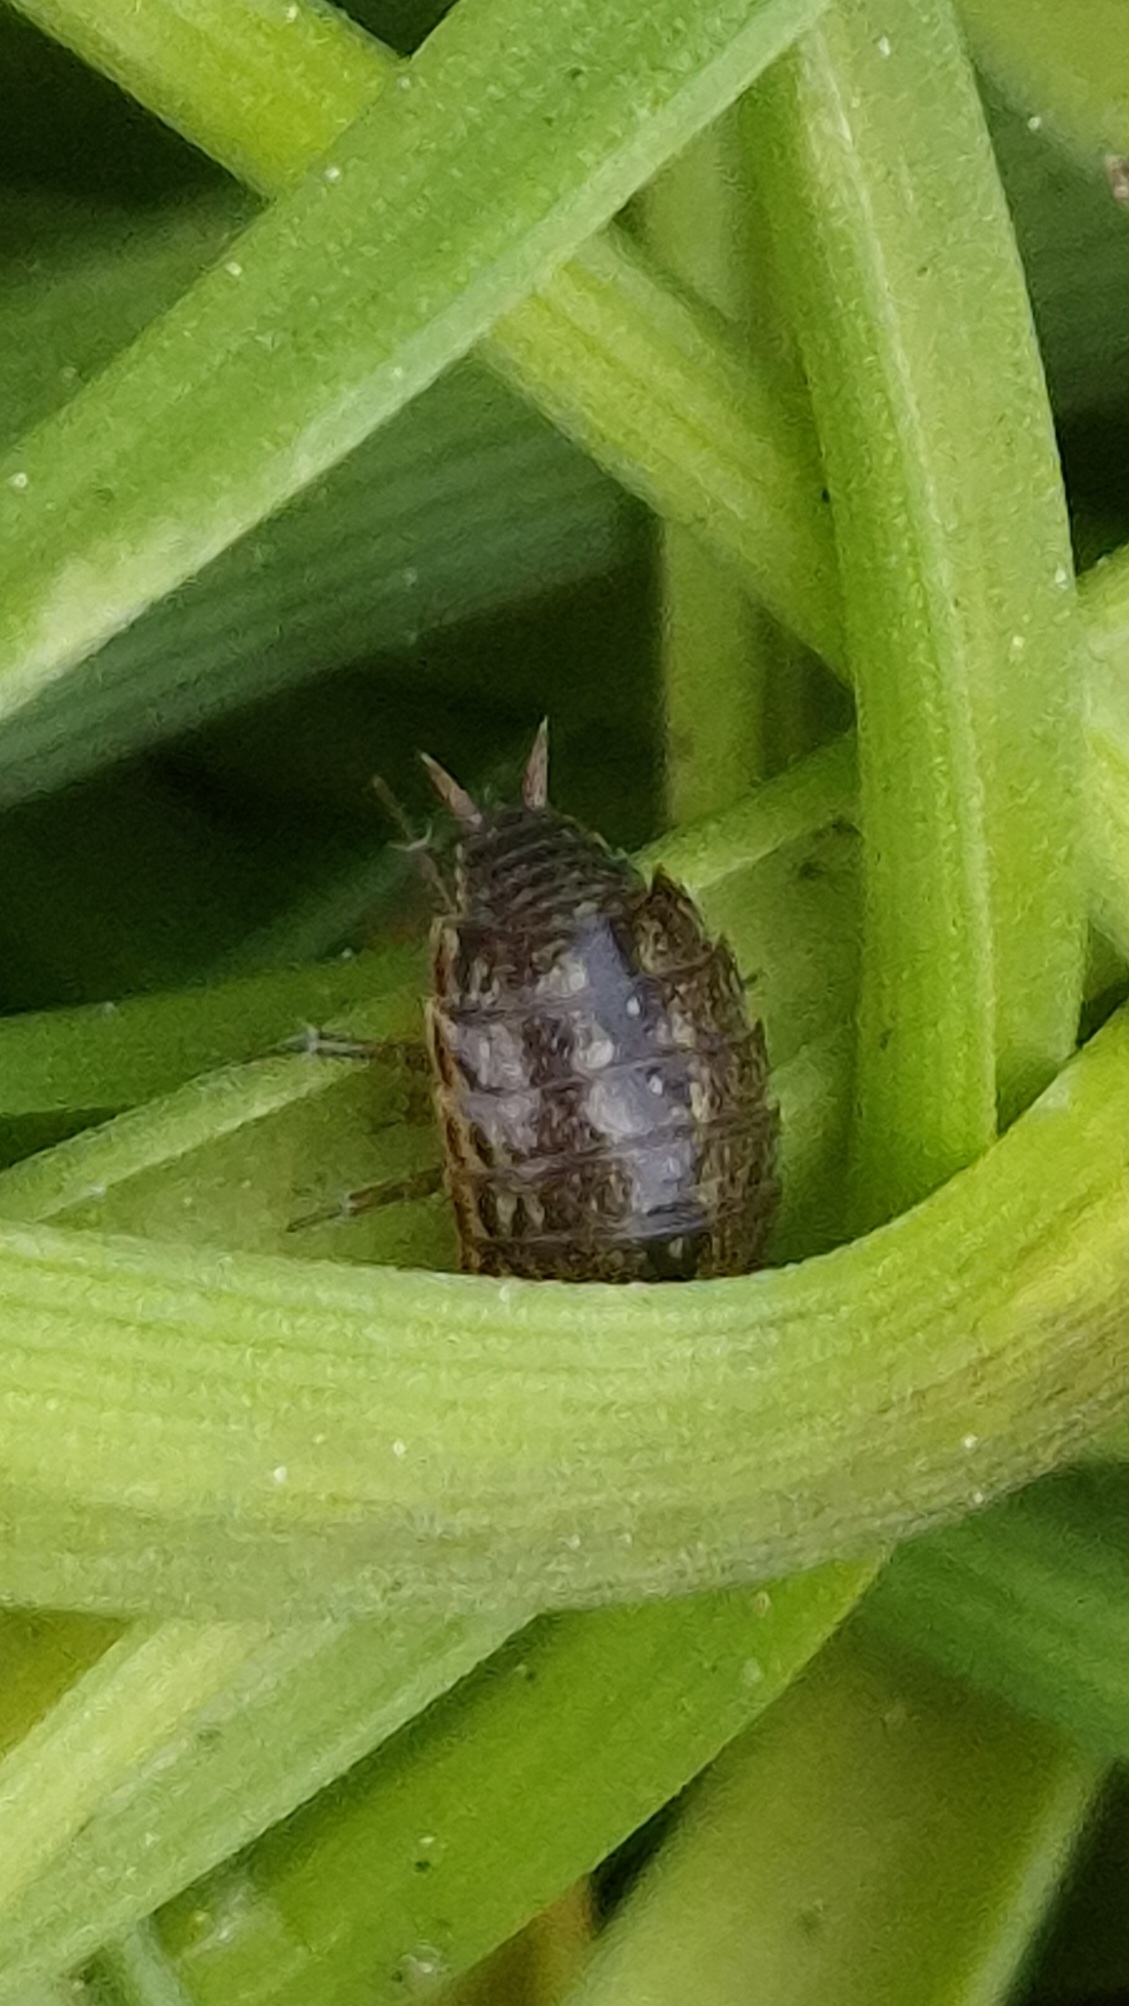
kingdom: Animalia
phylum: Arthropoda
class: Malacostraca
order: Isopoda
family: Philosciidae
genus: Philoscia
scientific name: Philoscia muscorum
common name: Common striped woodlouse
